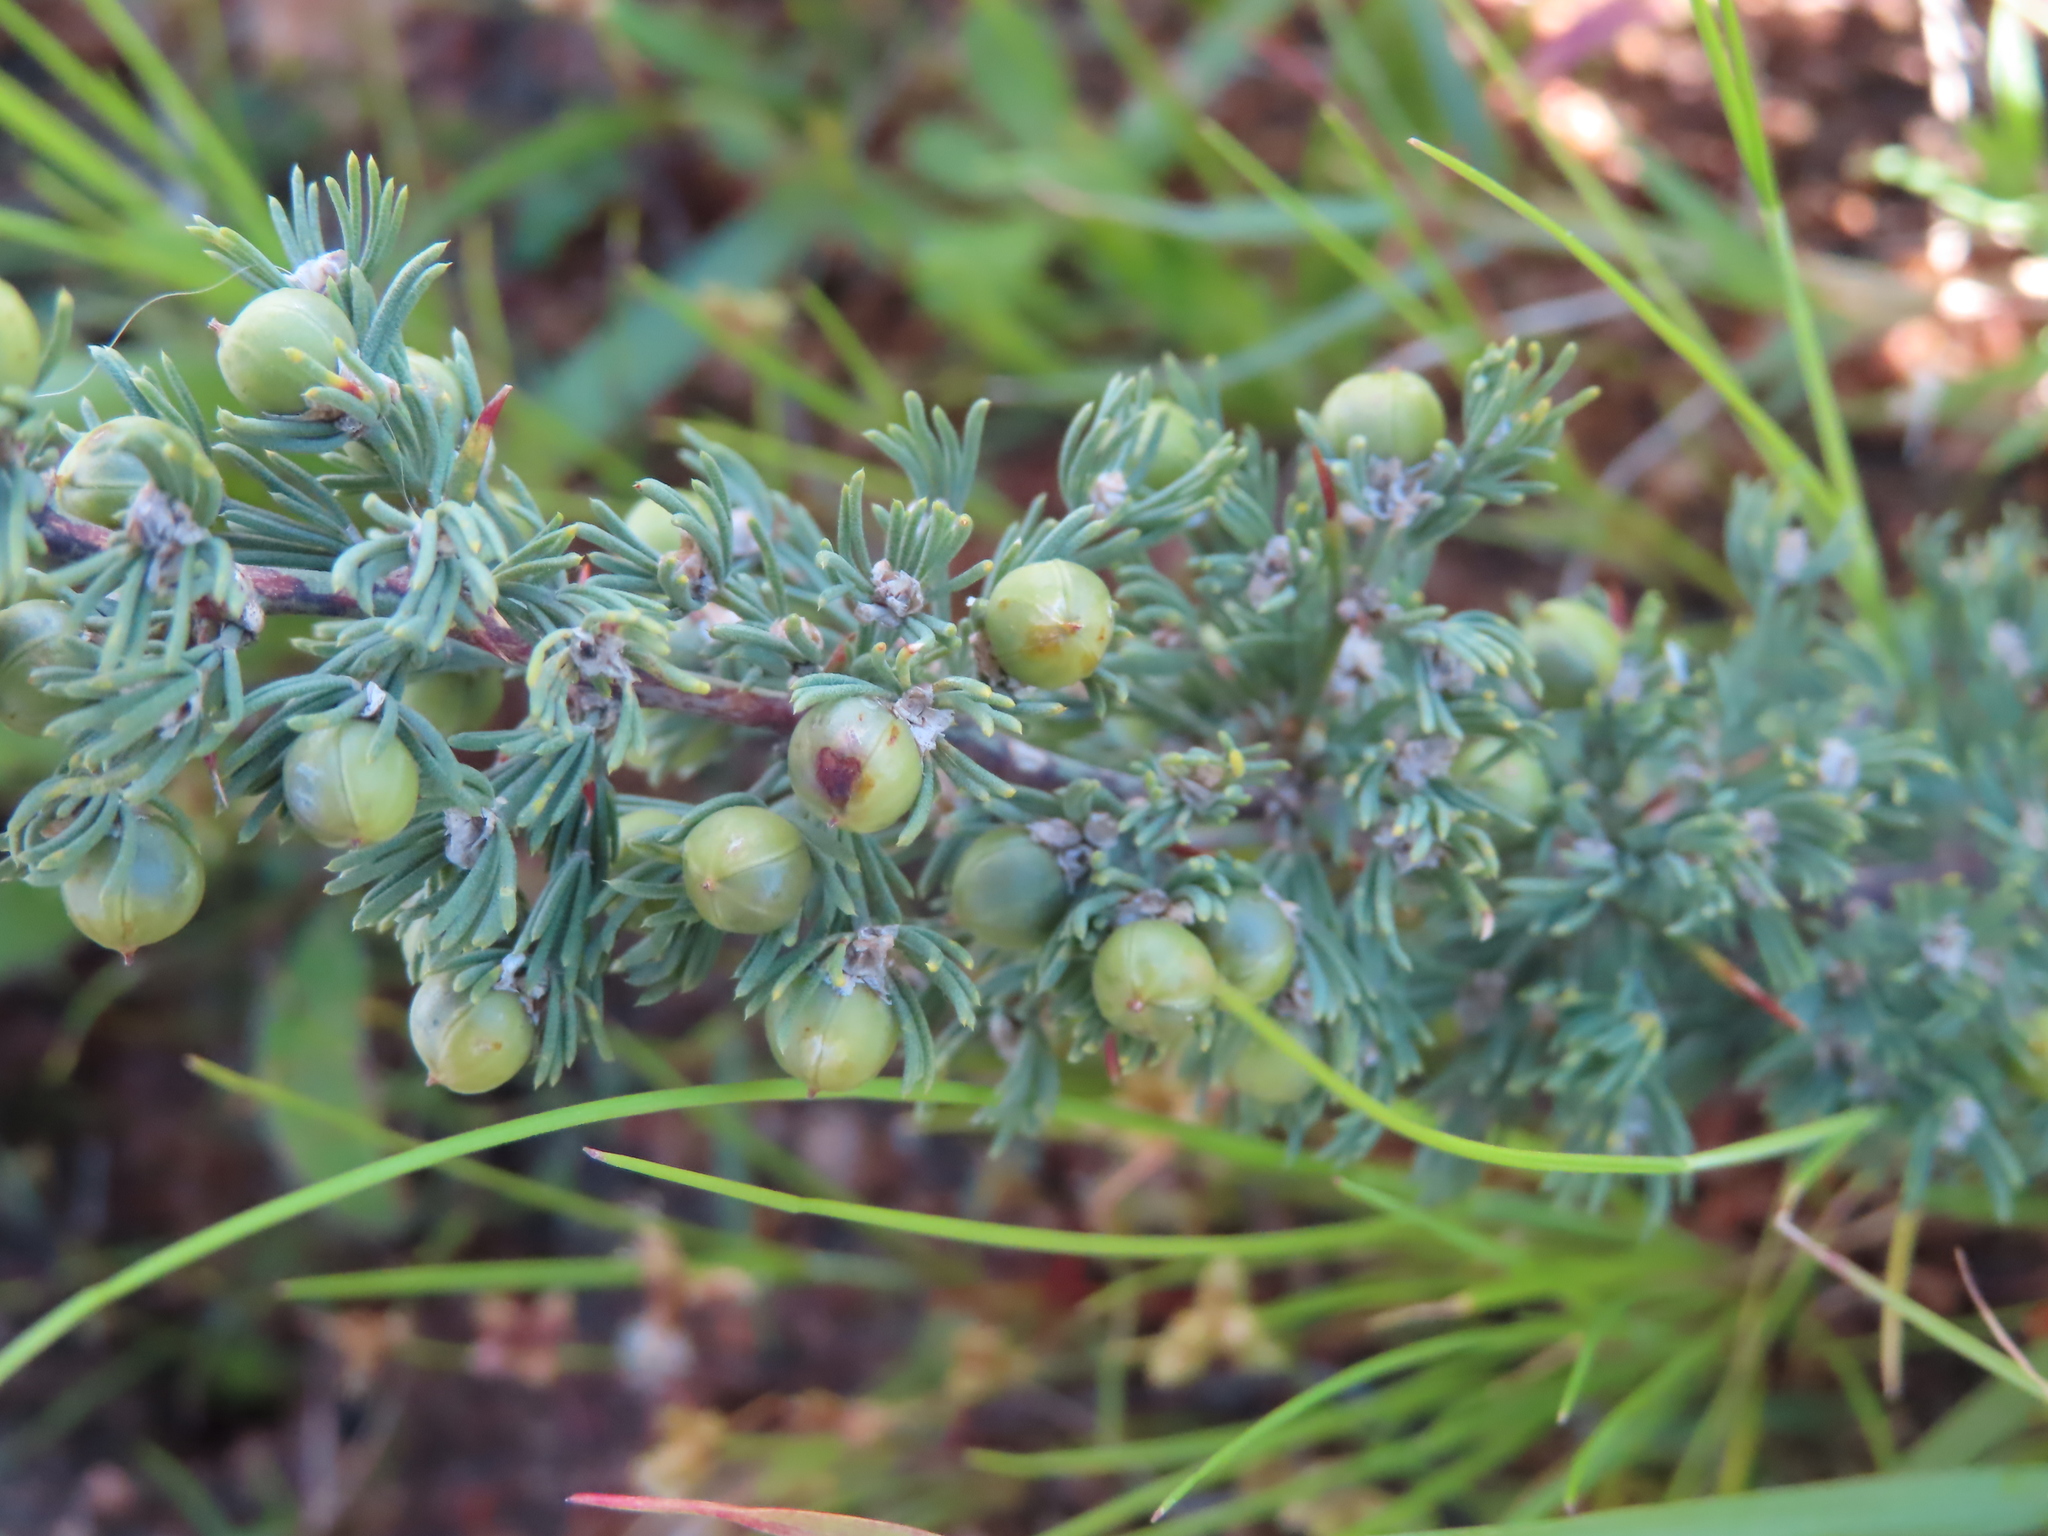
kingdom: Plantae
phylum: Tracheophyta
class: Liliopsida
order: Asparagales
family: Asparagaceae
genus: Asparagus
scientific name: Asparagus capensis
